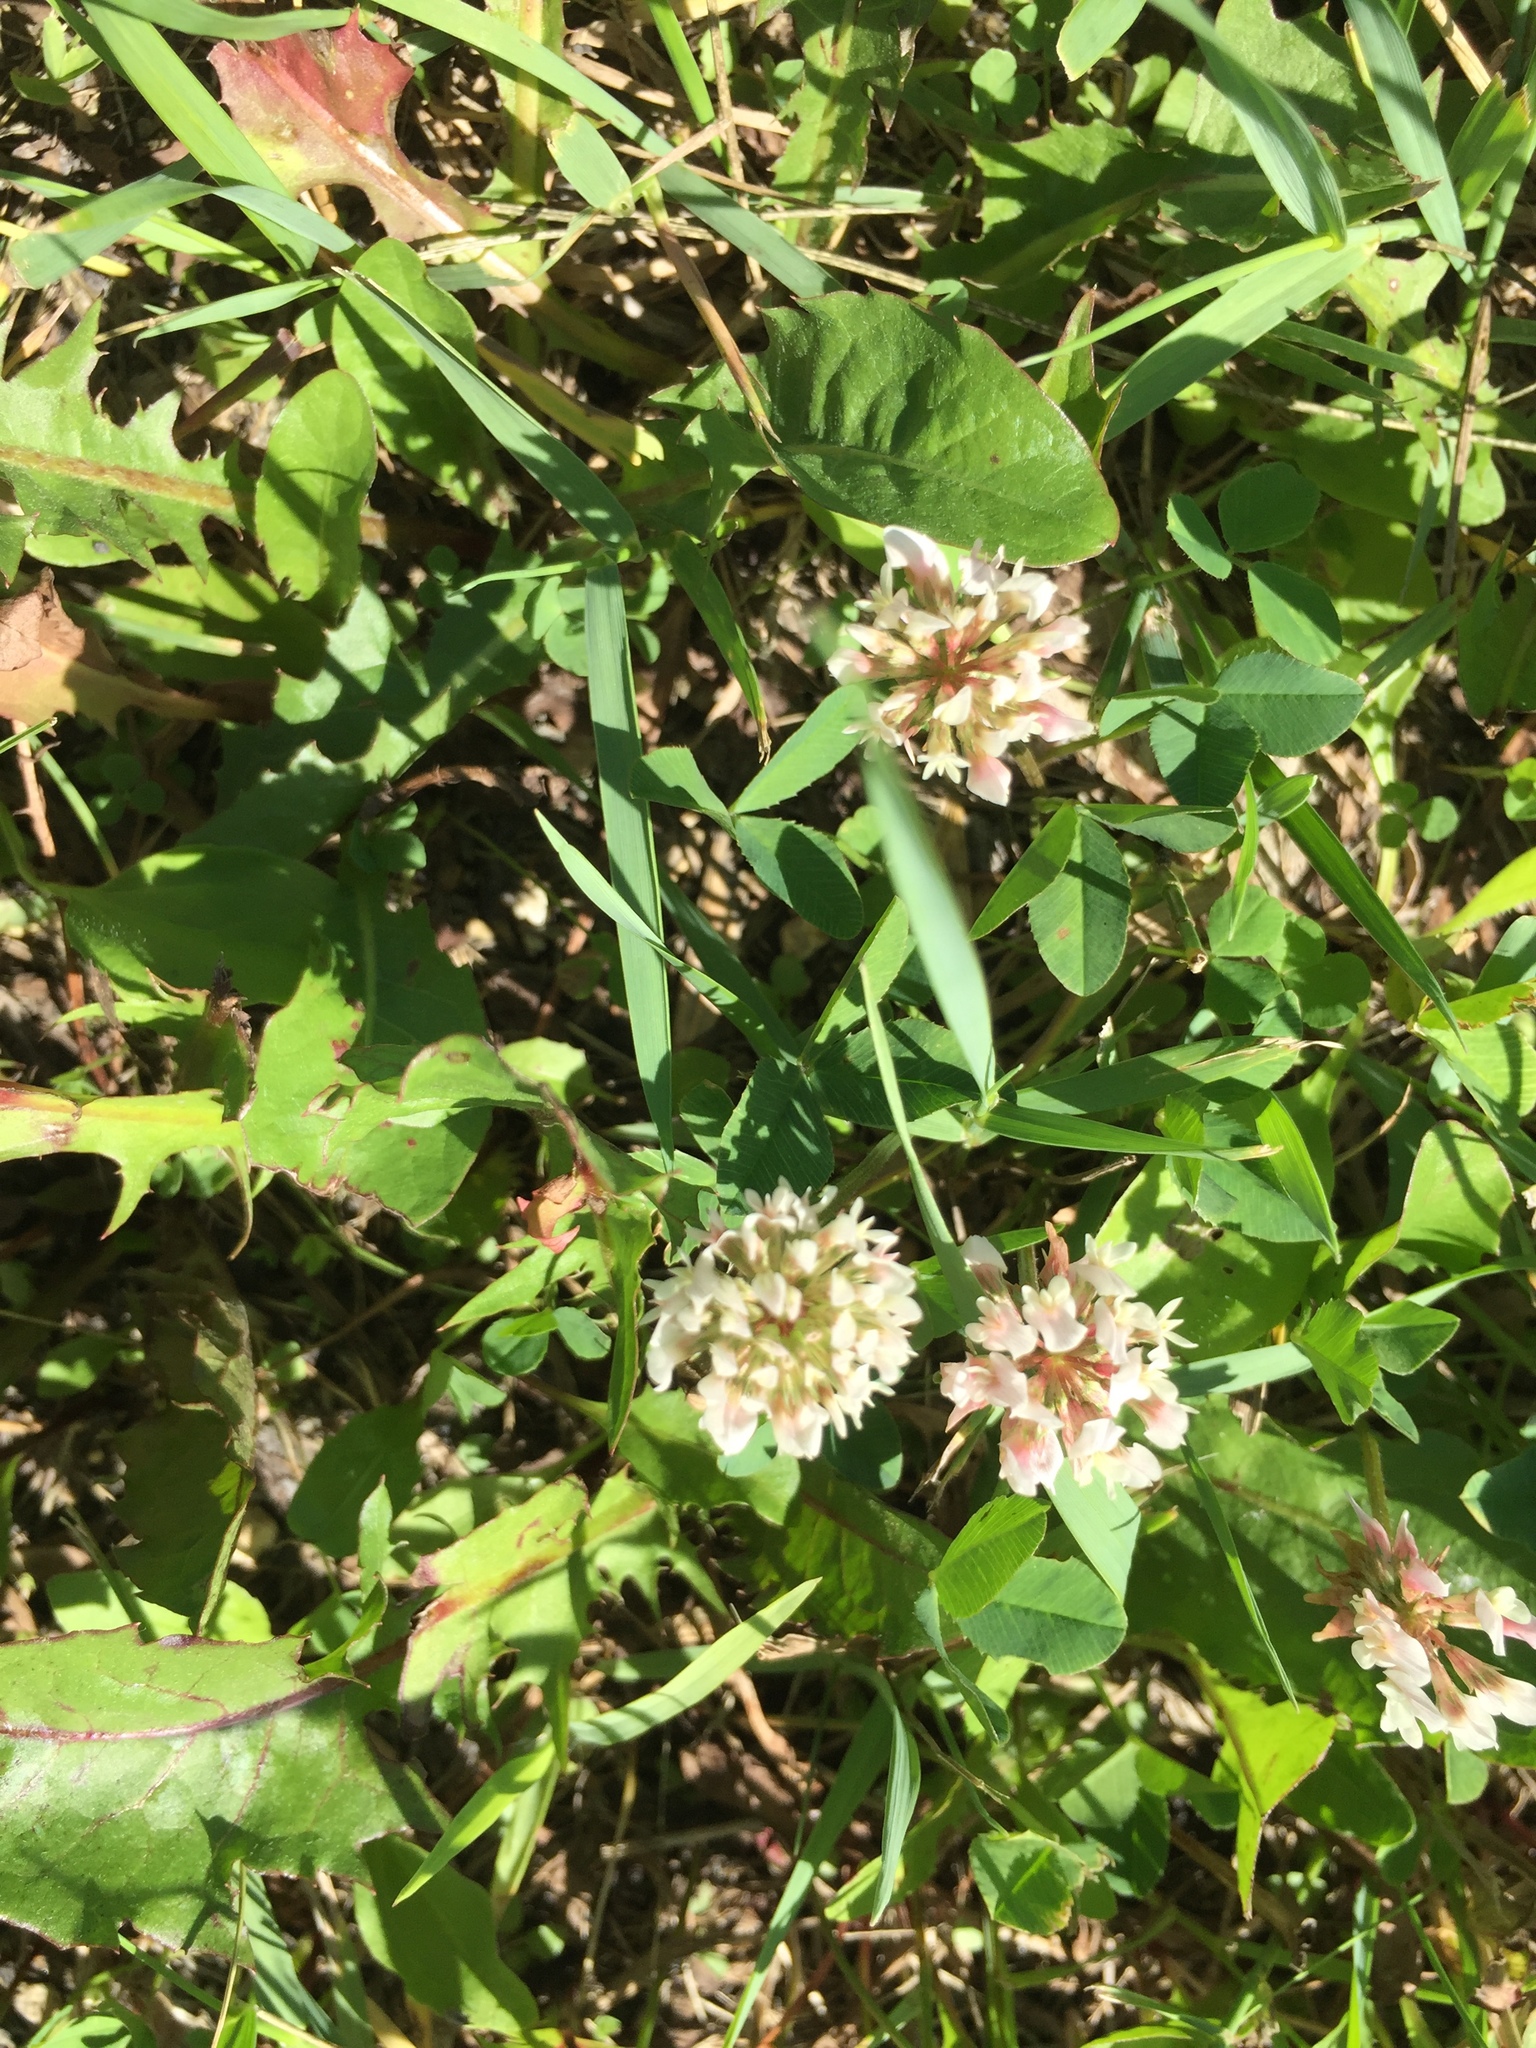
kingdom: Plantae
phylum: Tracheophyta
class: Magnoliopsida
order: Fabales
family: Fabaceae
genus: Trifolium
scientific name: Trifolium repens
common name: White clover
